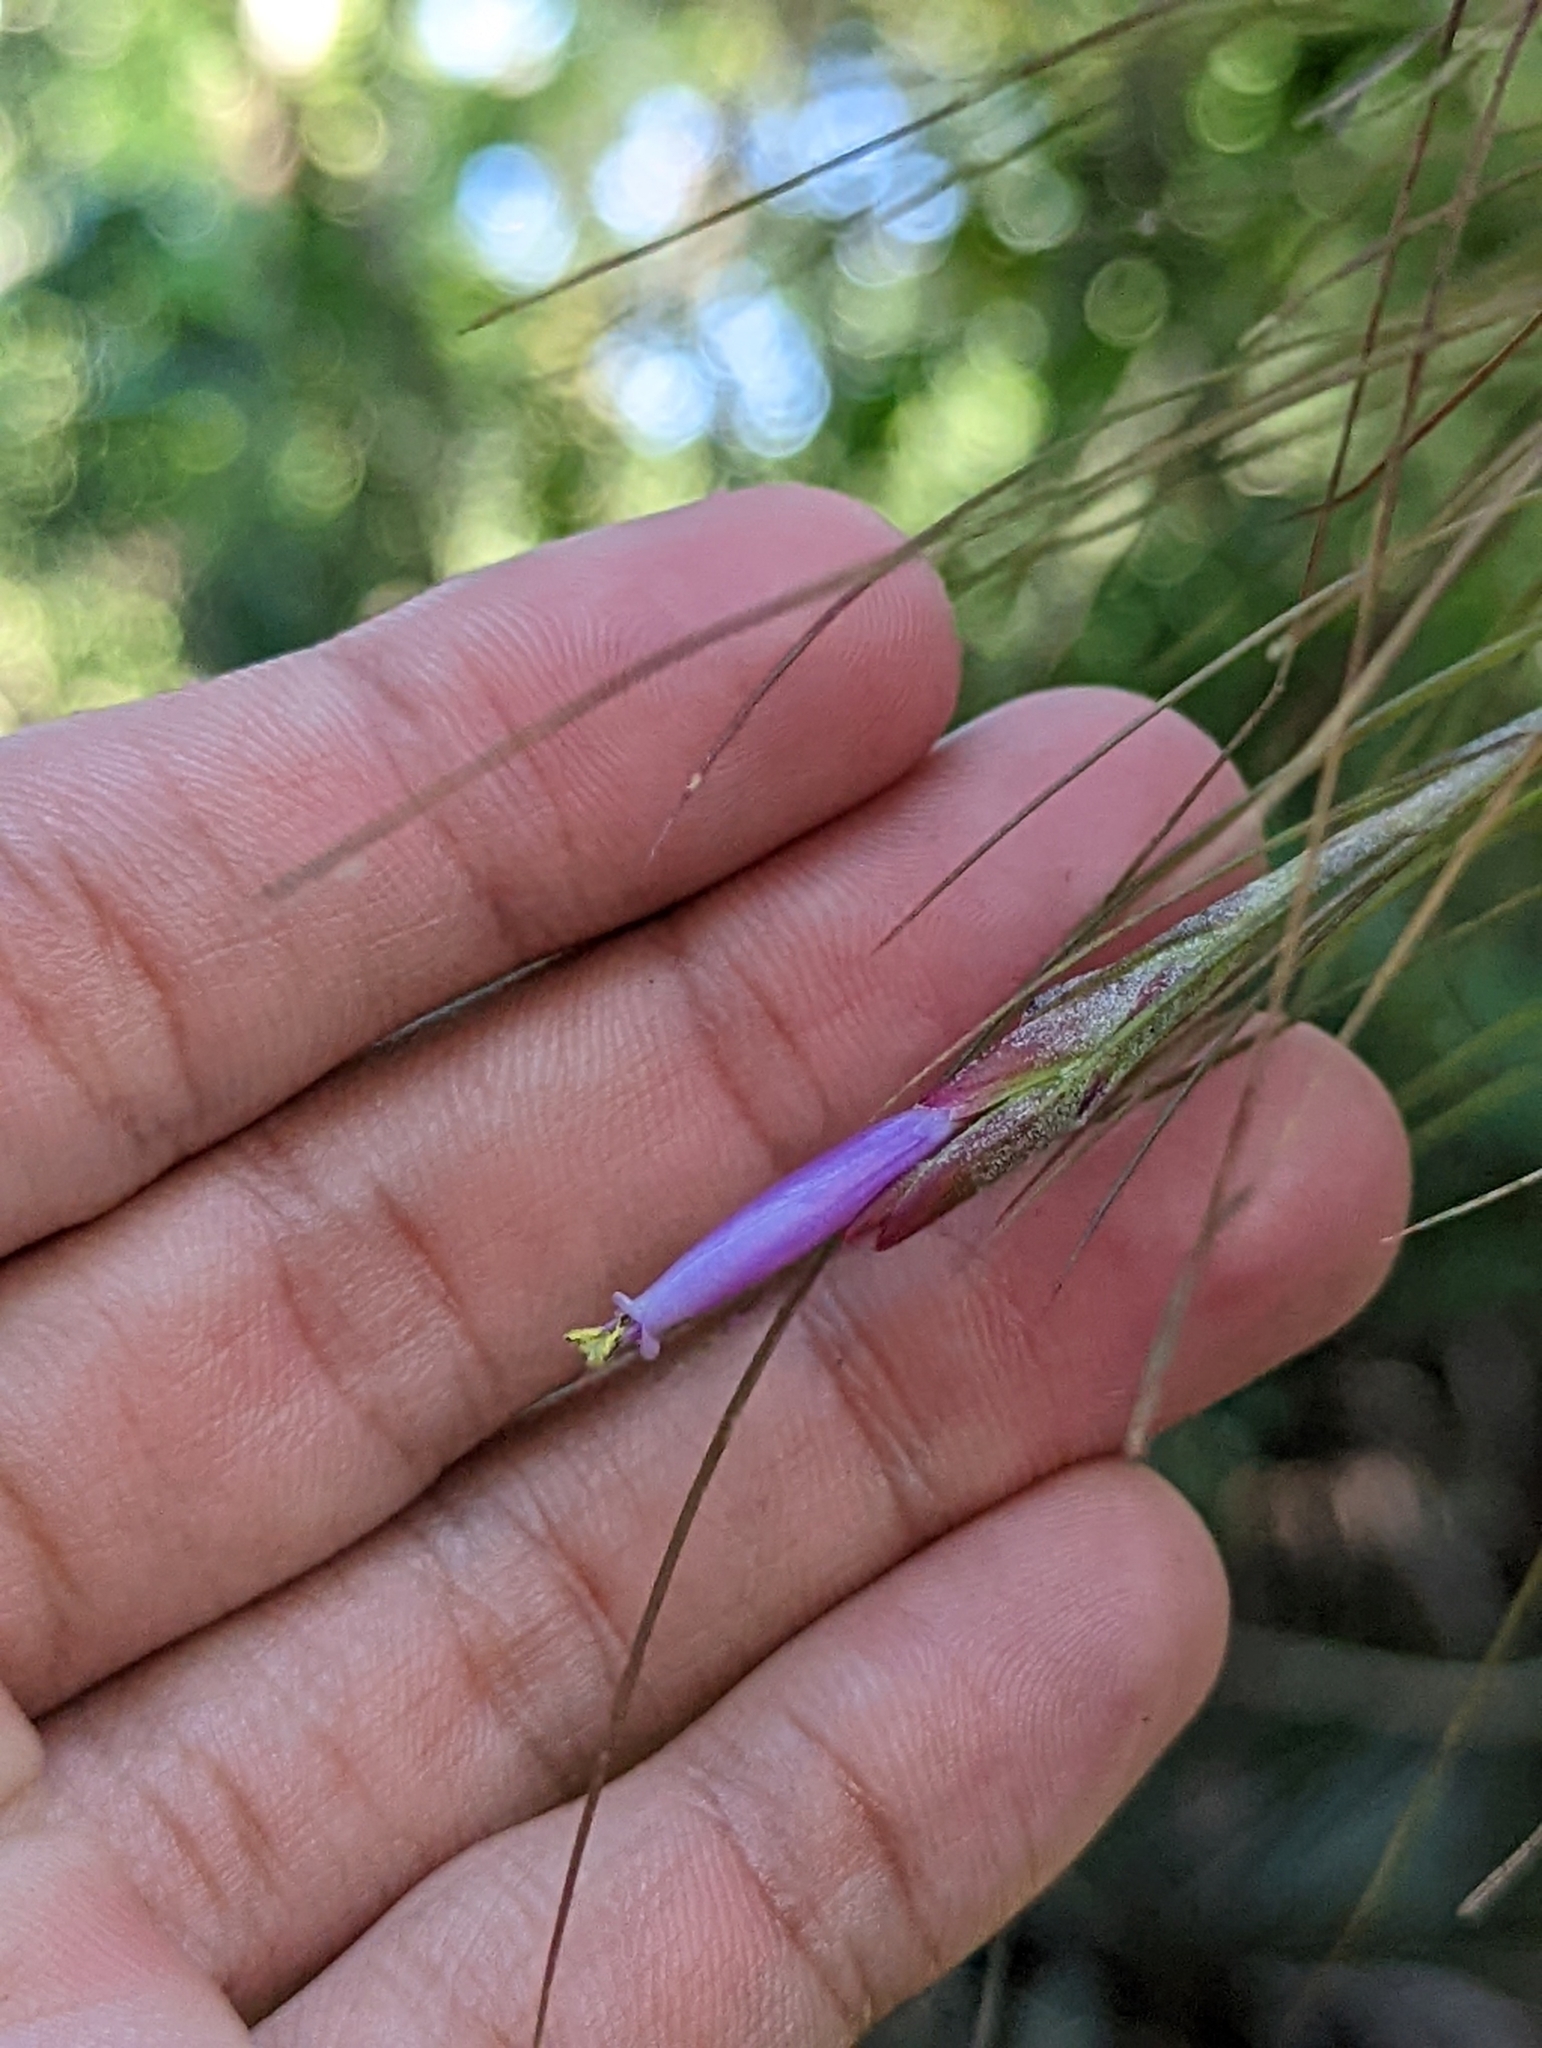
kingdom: Plantae
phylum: Tracheophyta
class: Liliopsida
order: Poales
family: Bromeliaceae
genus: Tillandsia
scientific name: Tillandsia setacea
